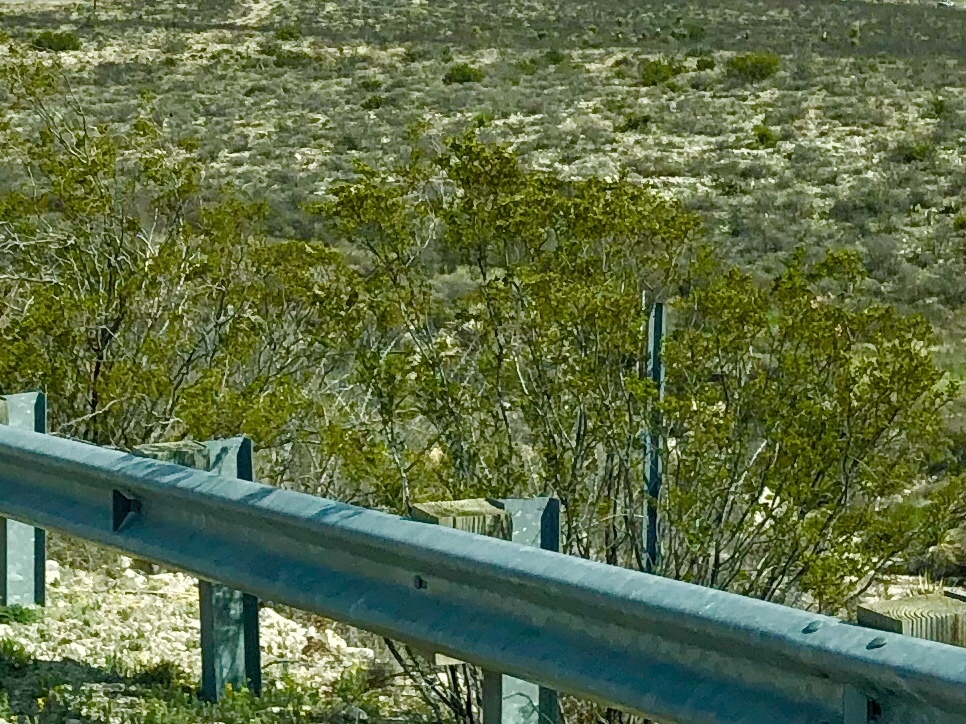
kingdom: Plantae
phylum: Tracheophyta
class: Magnoliopsida
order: Zygophyllales
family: Zygophyllaceae
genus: Larrea
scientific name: Larrea tridentata
